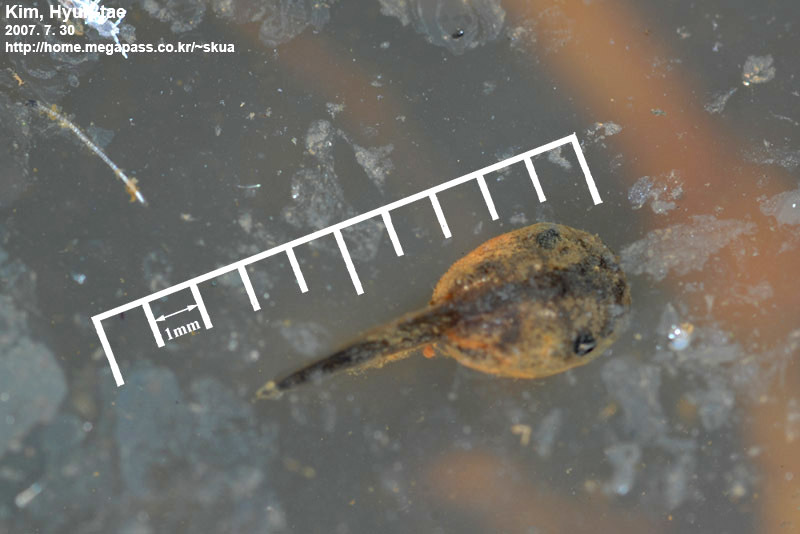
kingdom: Animalia
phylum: Chordata
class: Amphibia
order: Anura
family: Microhylidae
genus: Kaloula
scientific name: Kaloula borealis
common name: Boreal digging frog
